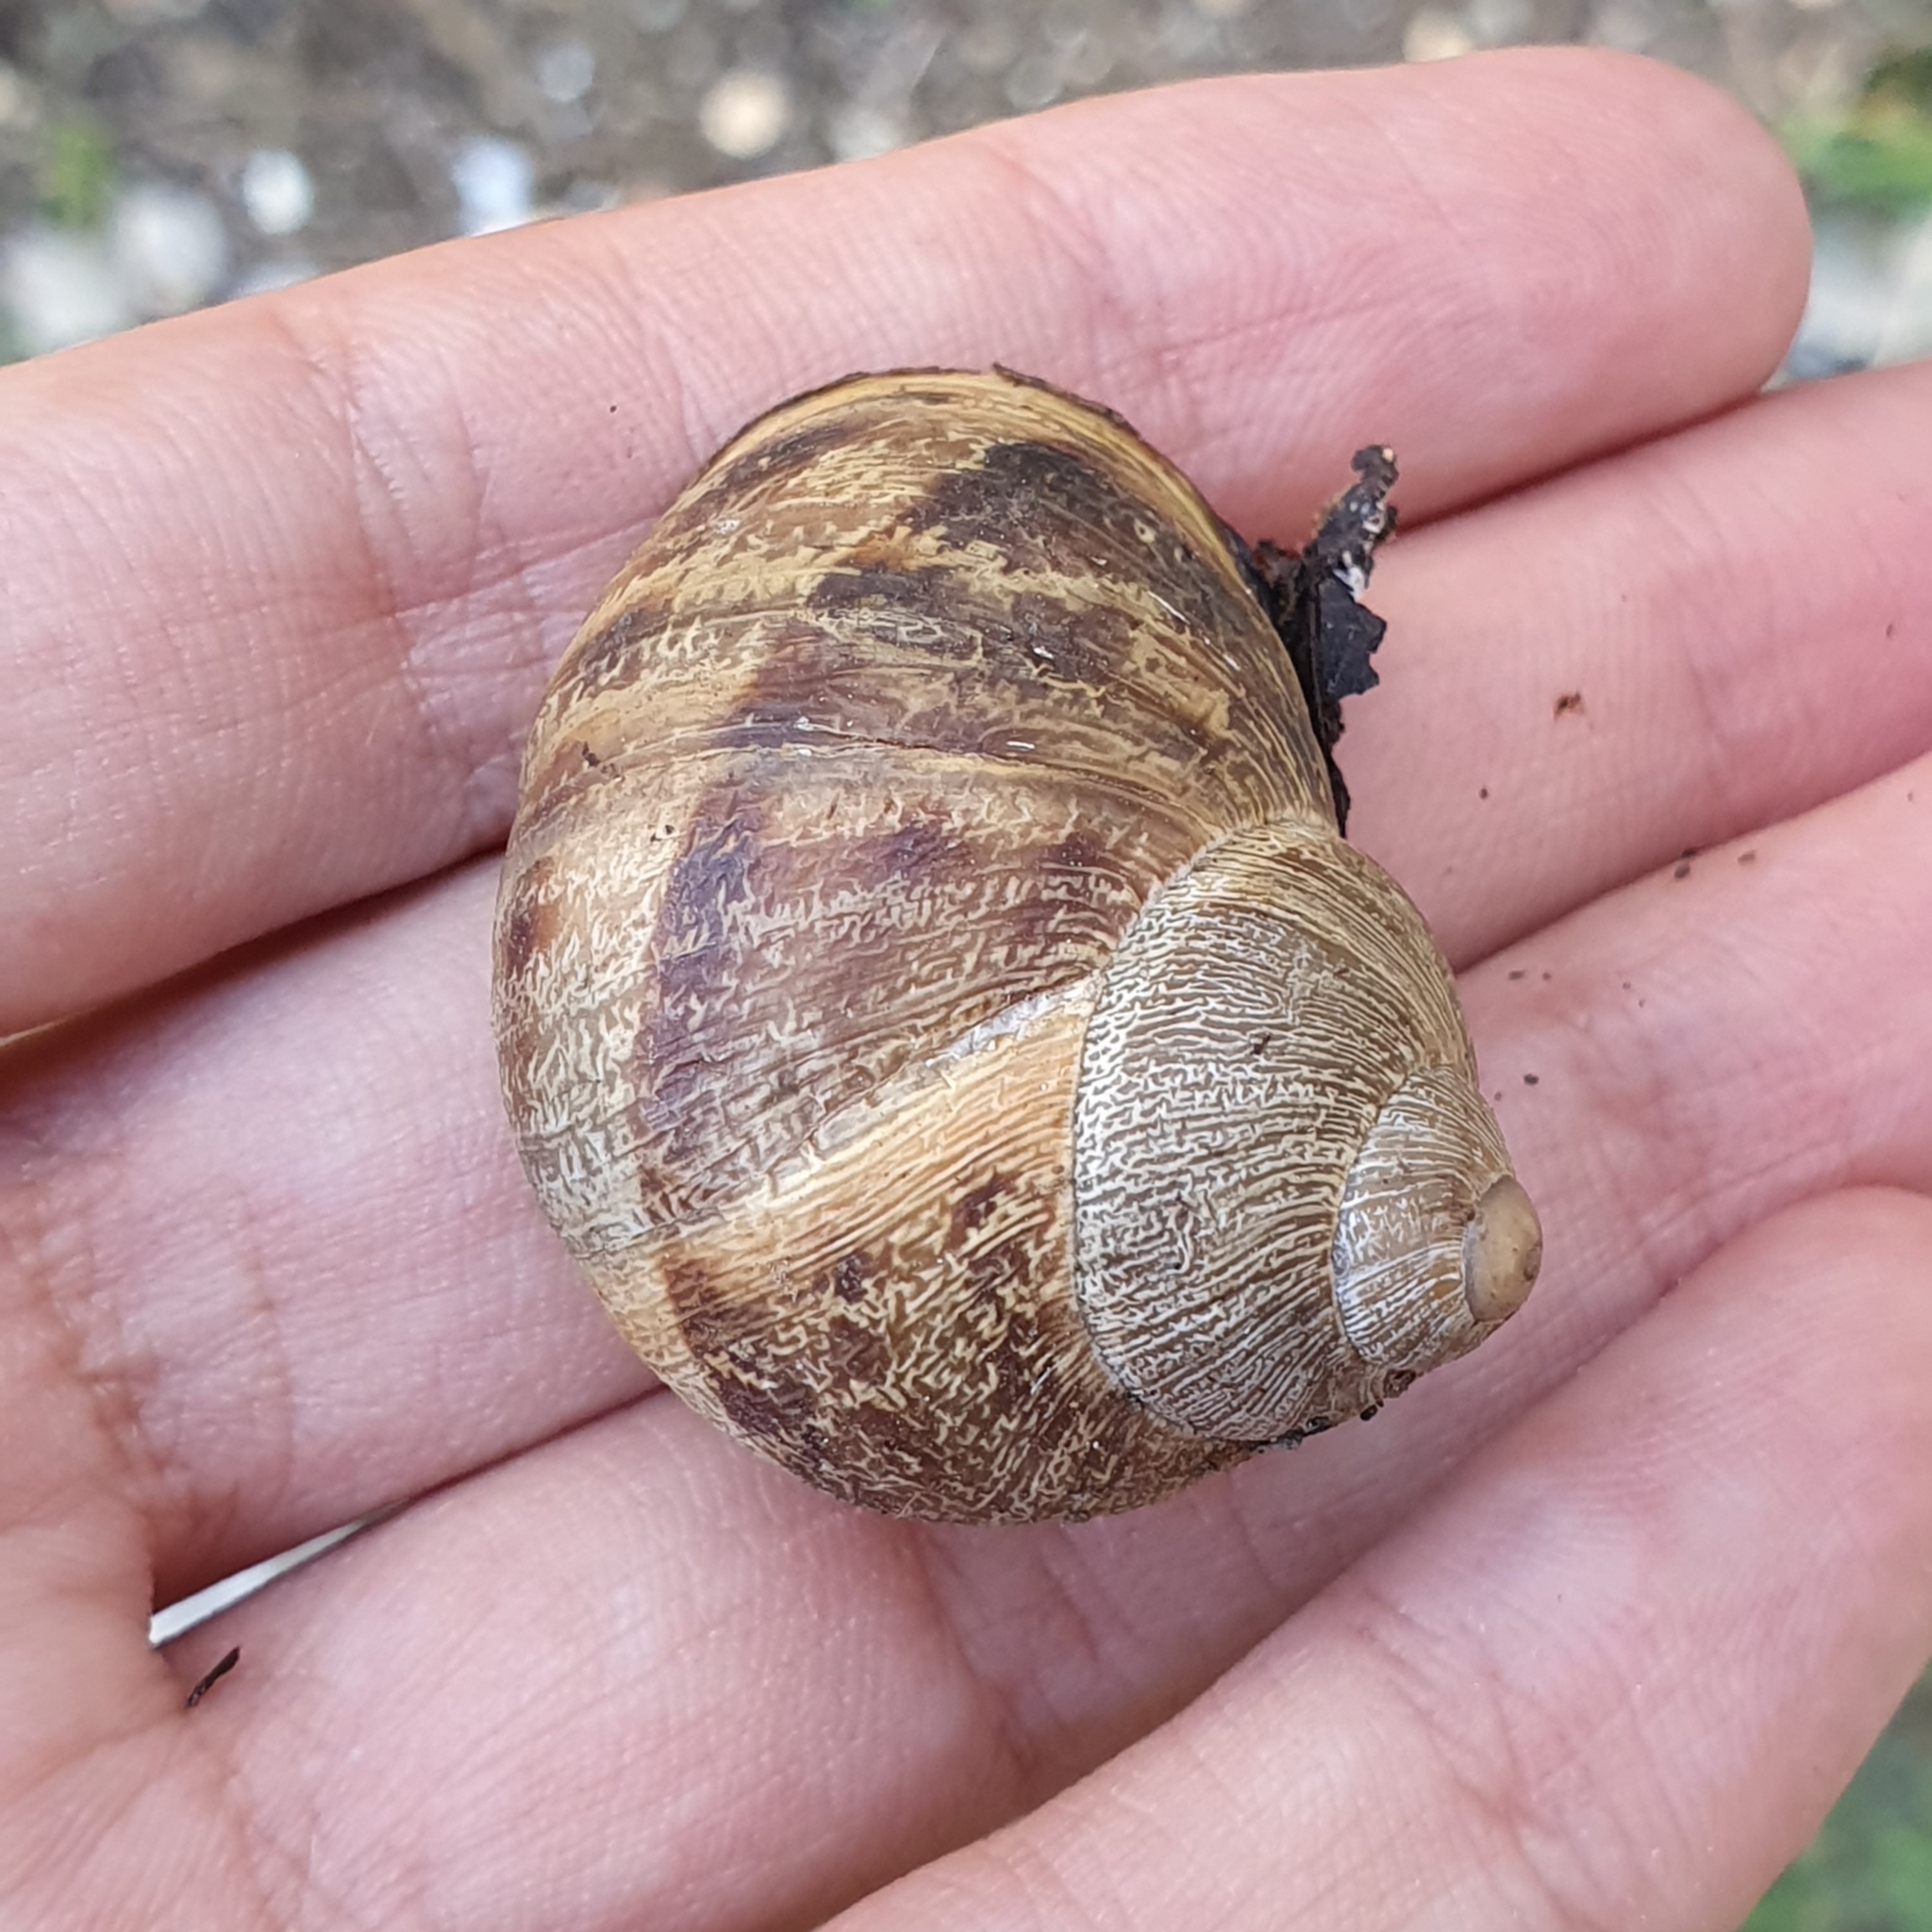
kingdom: Animalia
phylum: Mollusca
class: Gastropoda
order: Stylommatophora
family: Helicidae
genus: Cornu
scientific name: Cornu aspersum
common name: Brown garden snail
